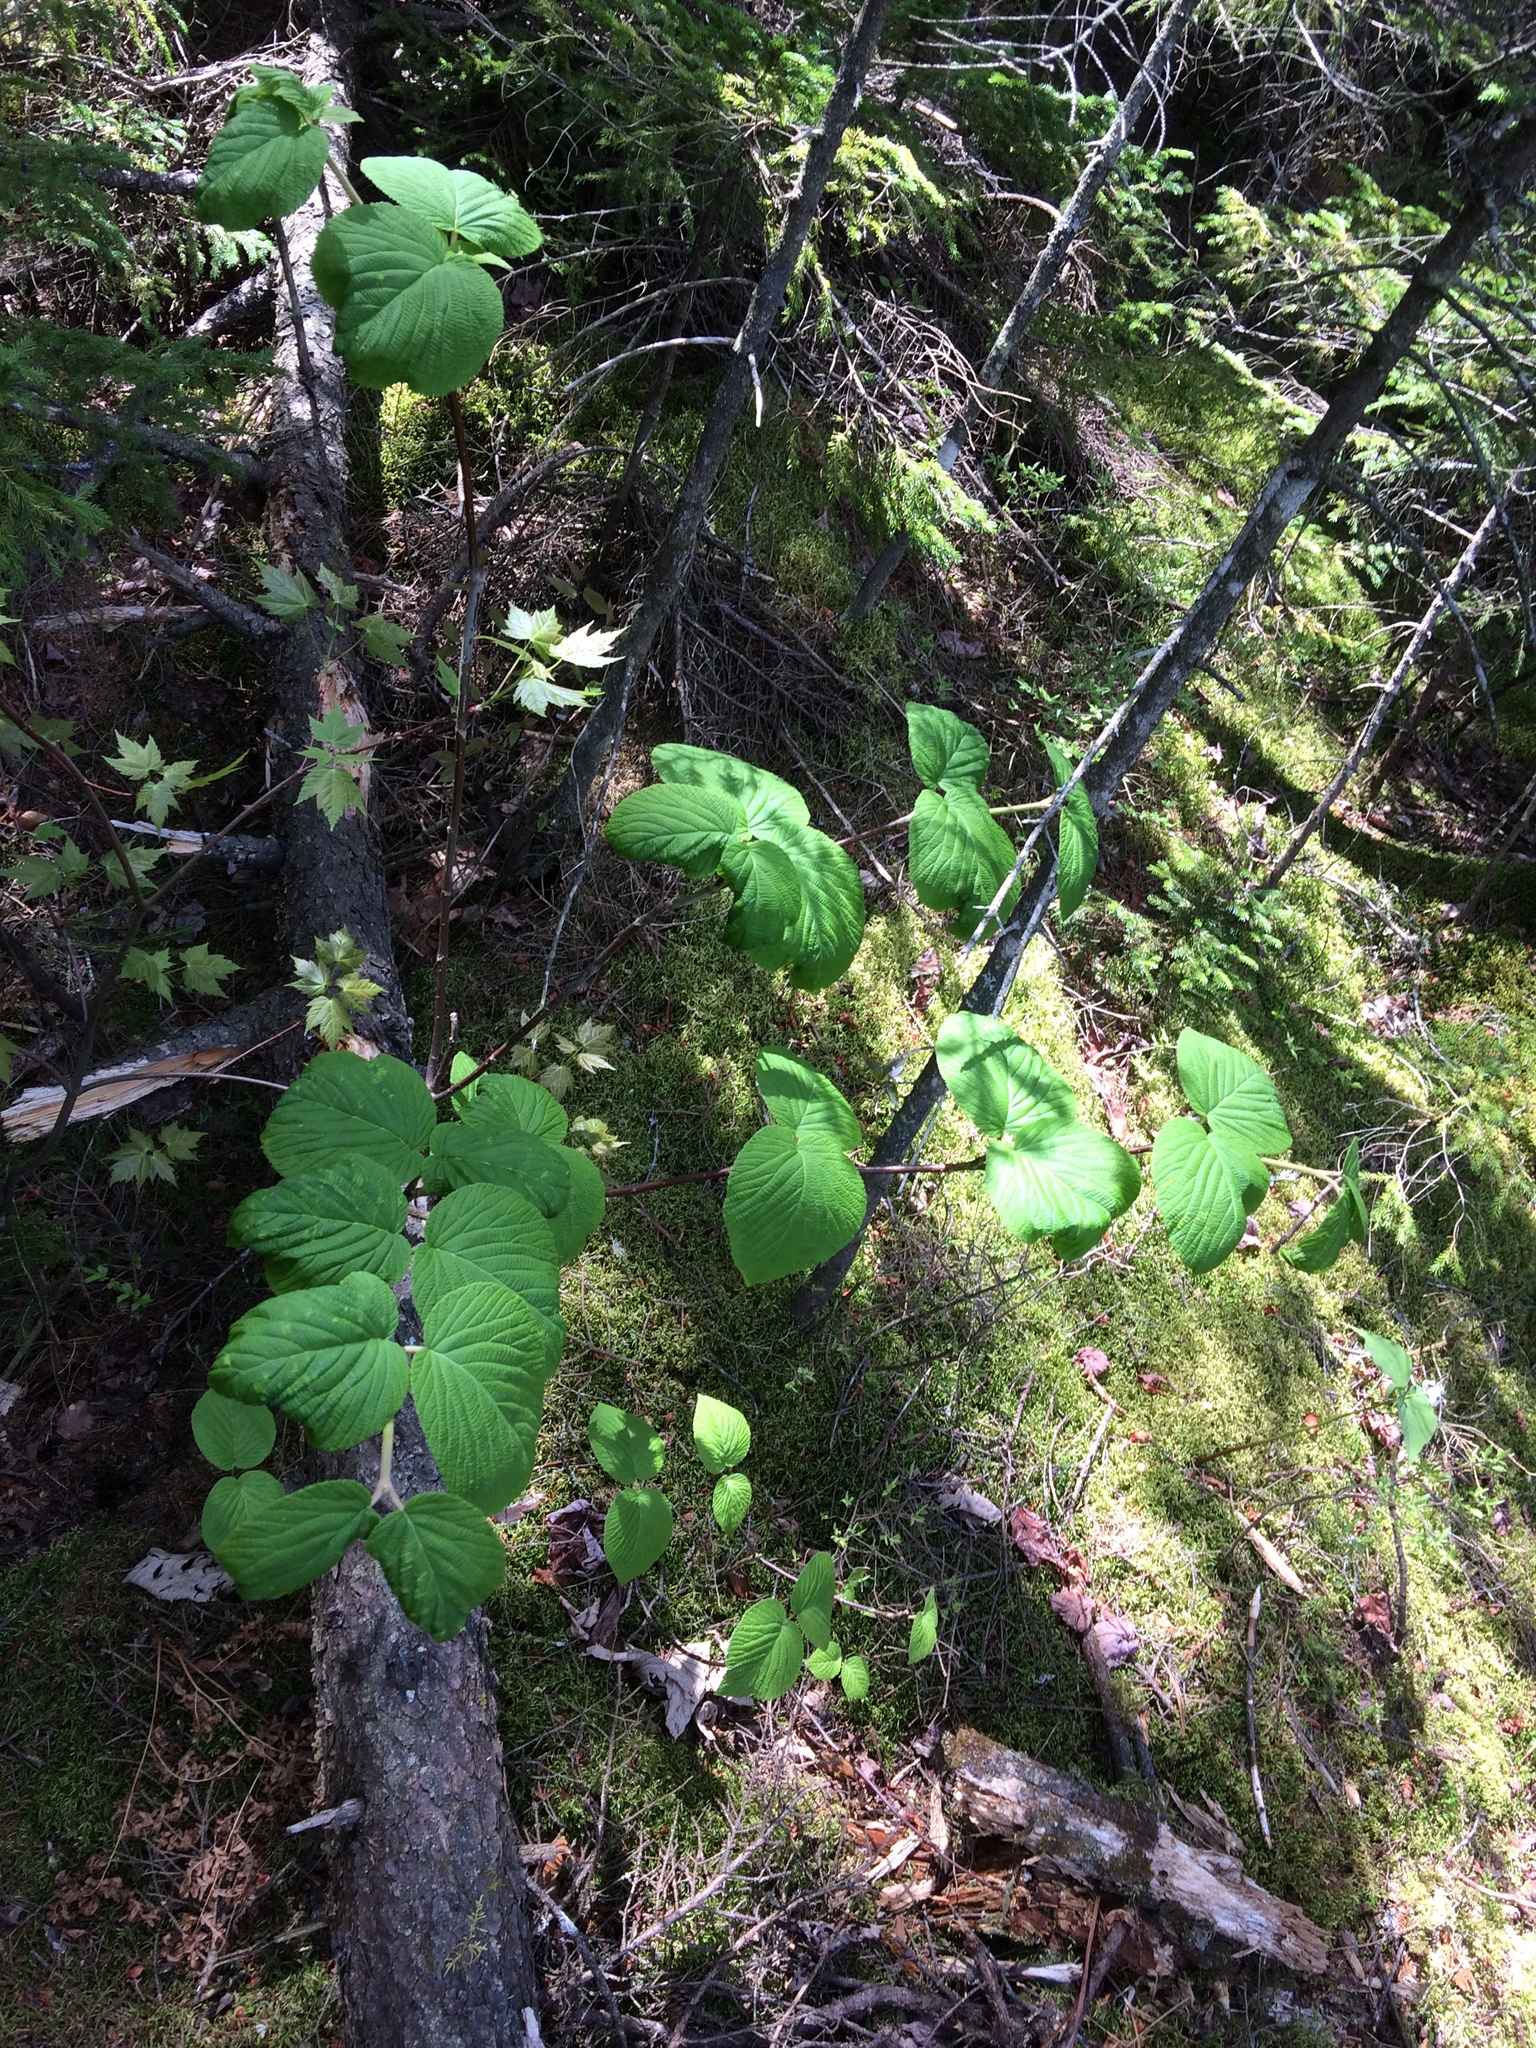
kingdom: Plantae
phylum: Tracheophyta
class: Magnoliopsida
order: Dipsacales
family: Viburnaceae
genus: Viburnum
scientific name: Viburnum lantanoides
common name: Hobblebush
